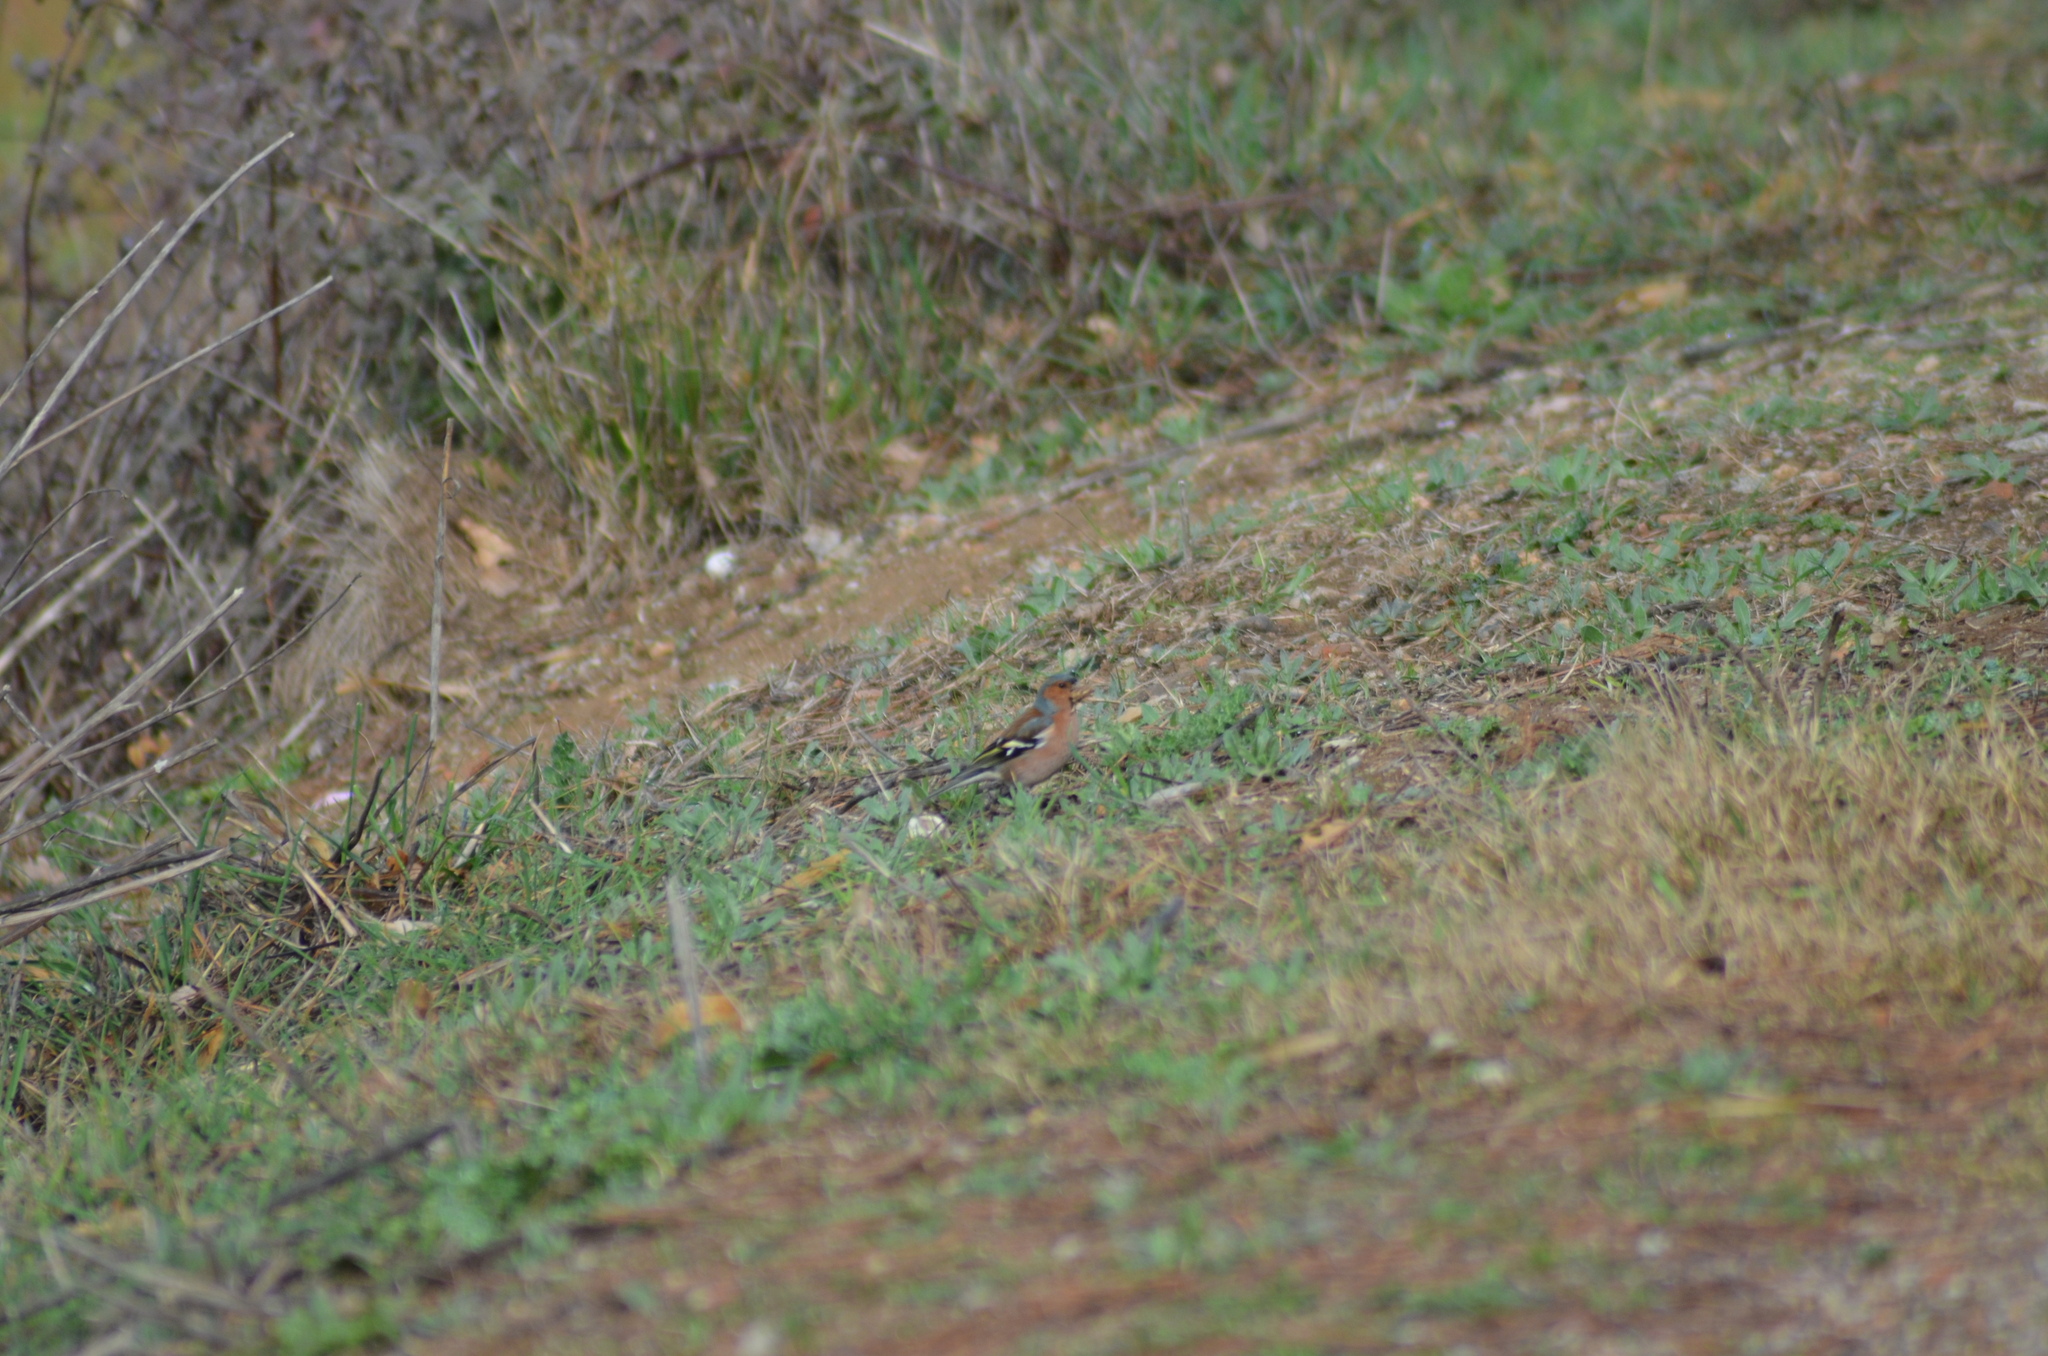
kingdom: Animalia
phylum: Chordata
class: Aves
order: Passeriformes
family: Fringillidae
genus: Fringilla
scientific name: Fringilla coelebs
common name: Common chaffinch
